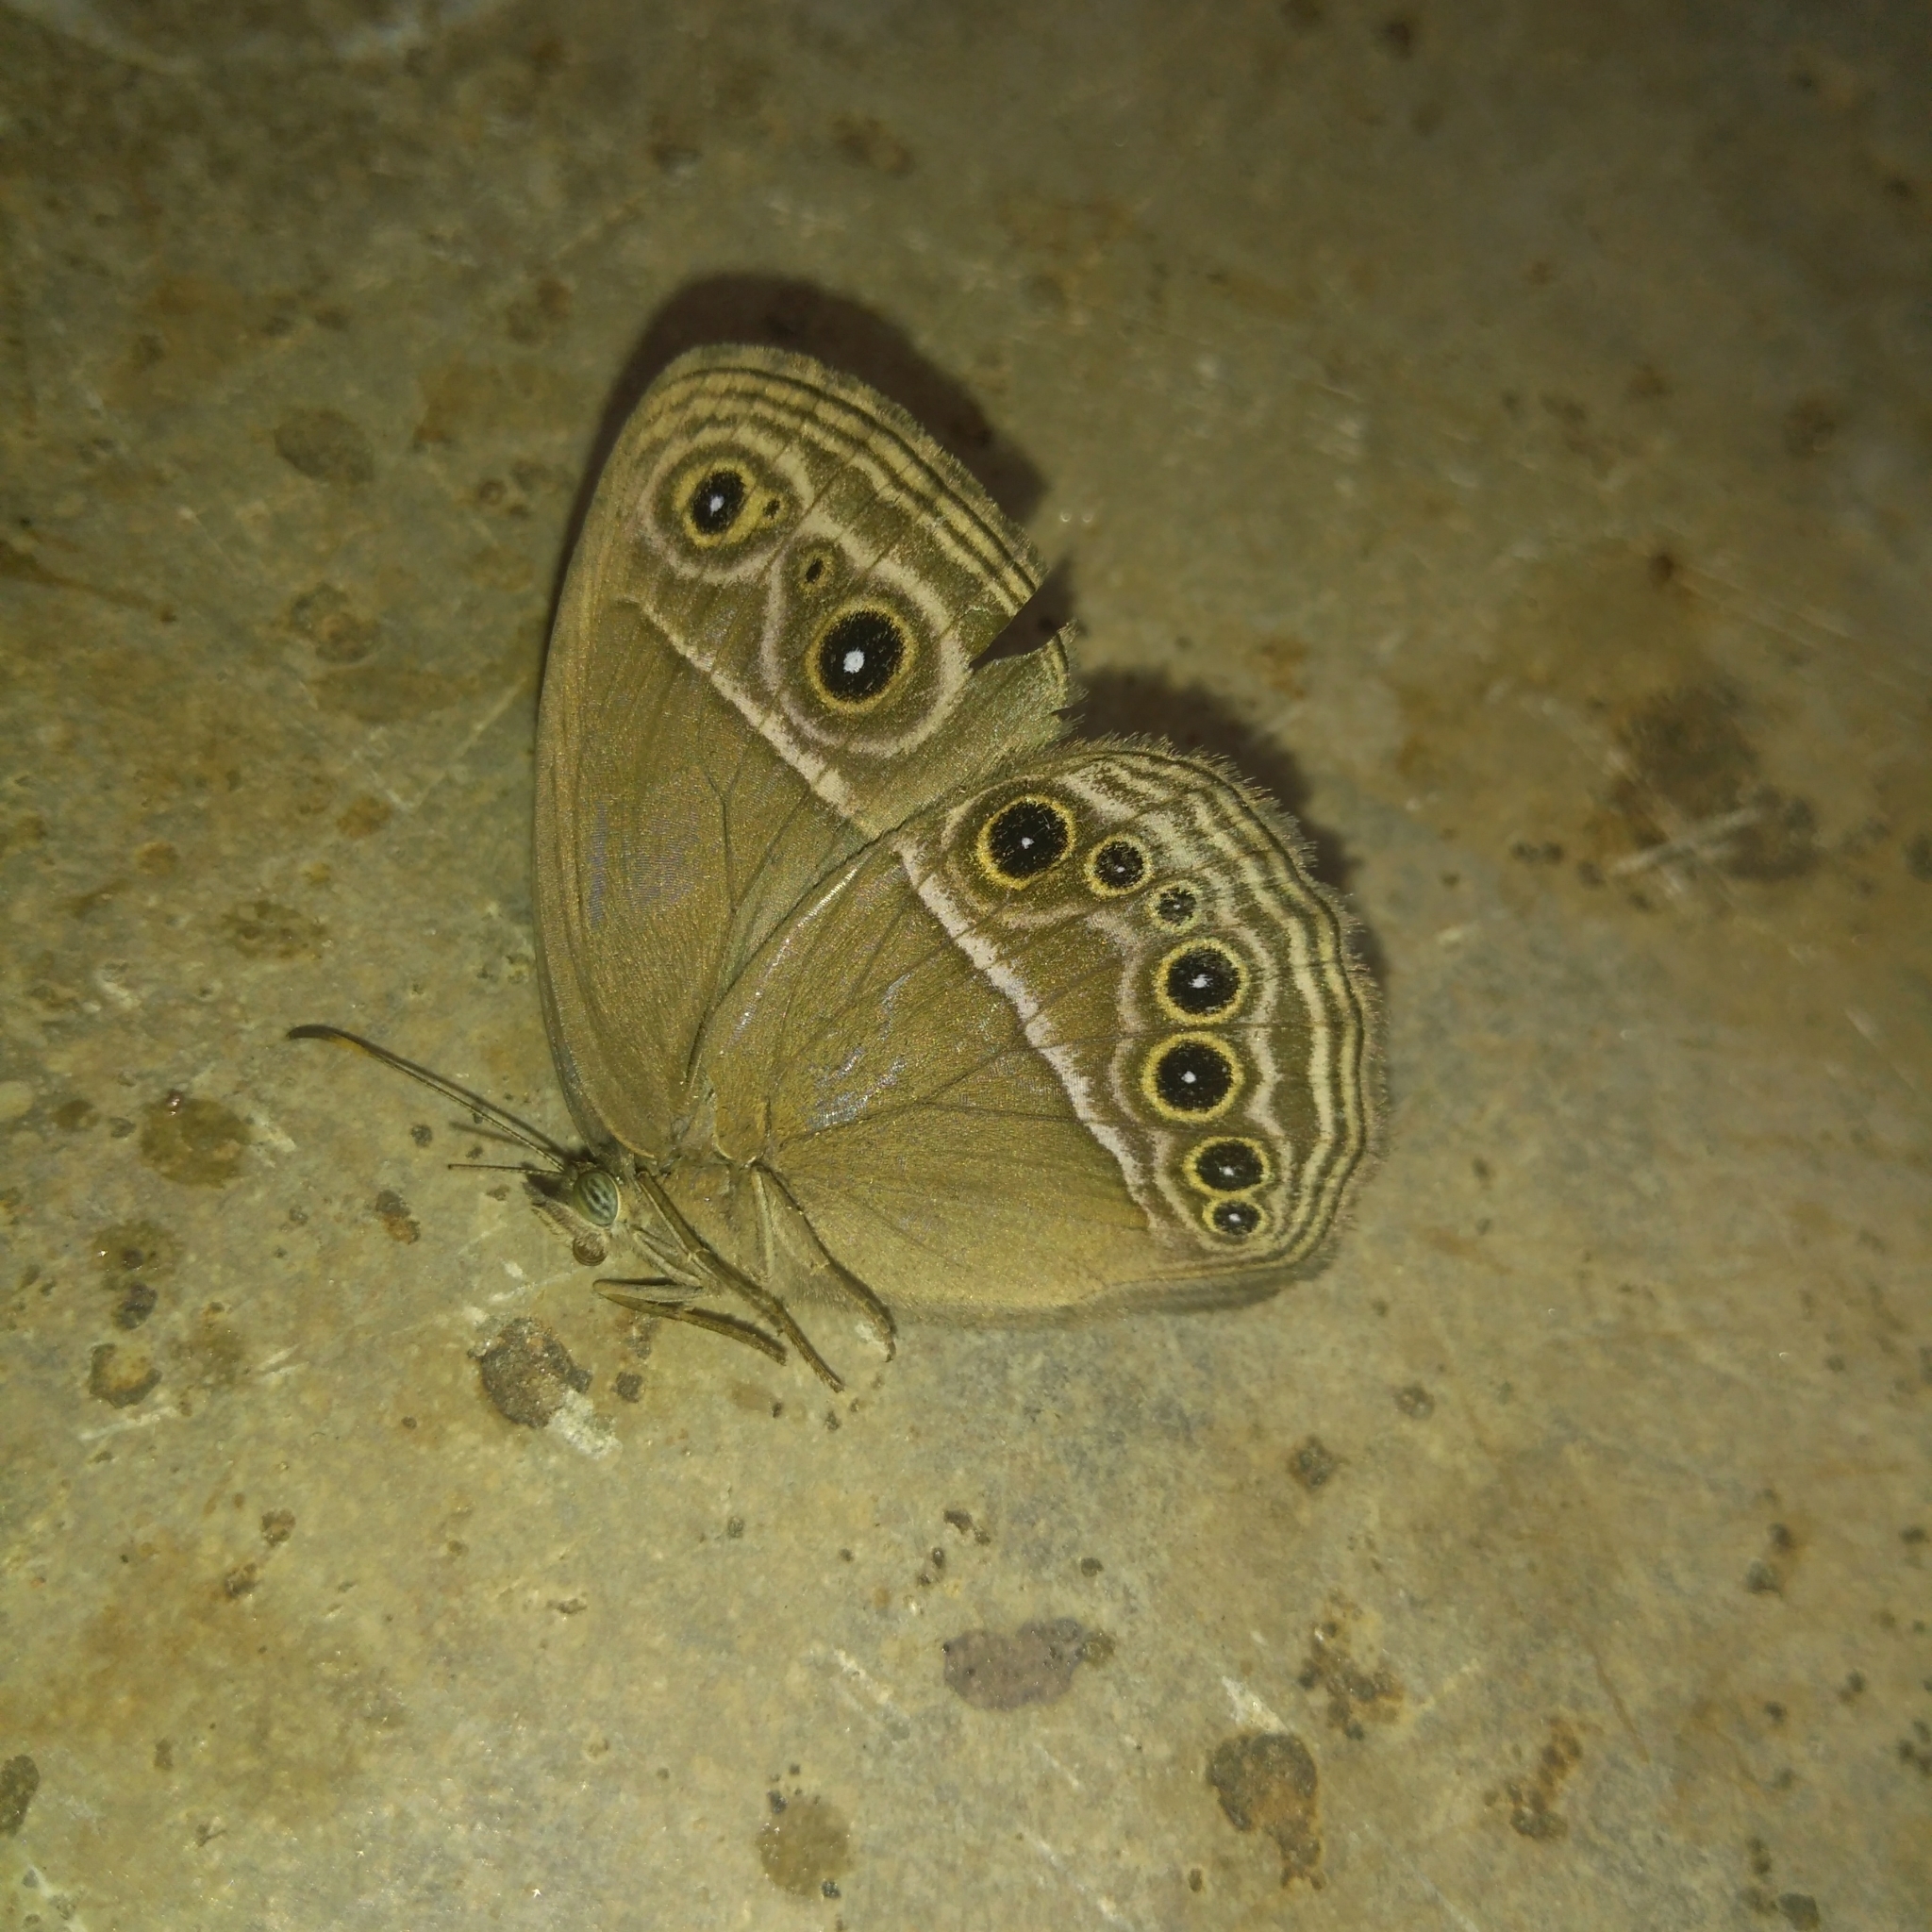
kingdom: Animalia
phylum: Arthropoda
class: Insecta
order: Lepidoptera
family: Nymphalidae
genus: Mycalesis
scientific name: Mycalesis perseus
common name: Dingy bushbrown
